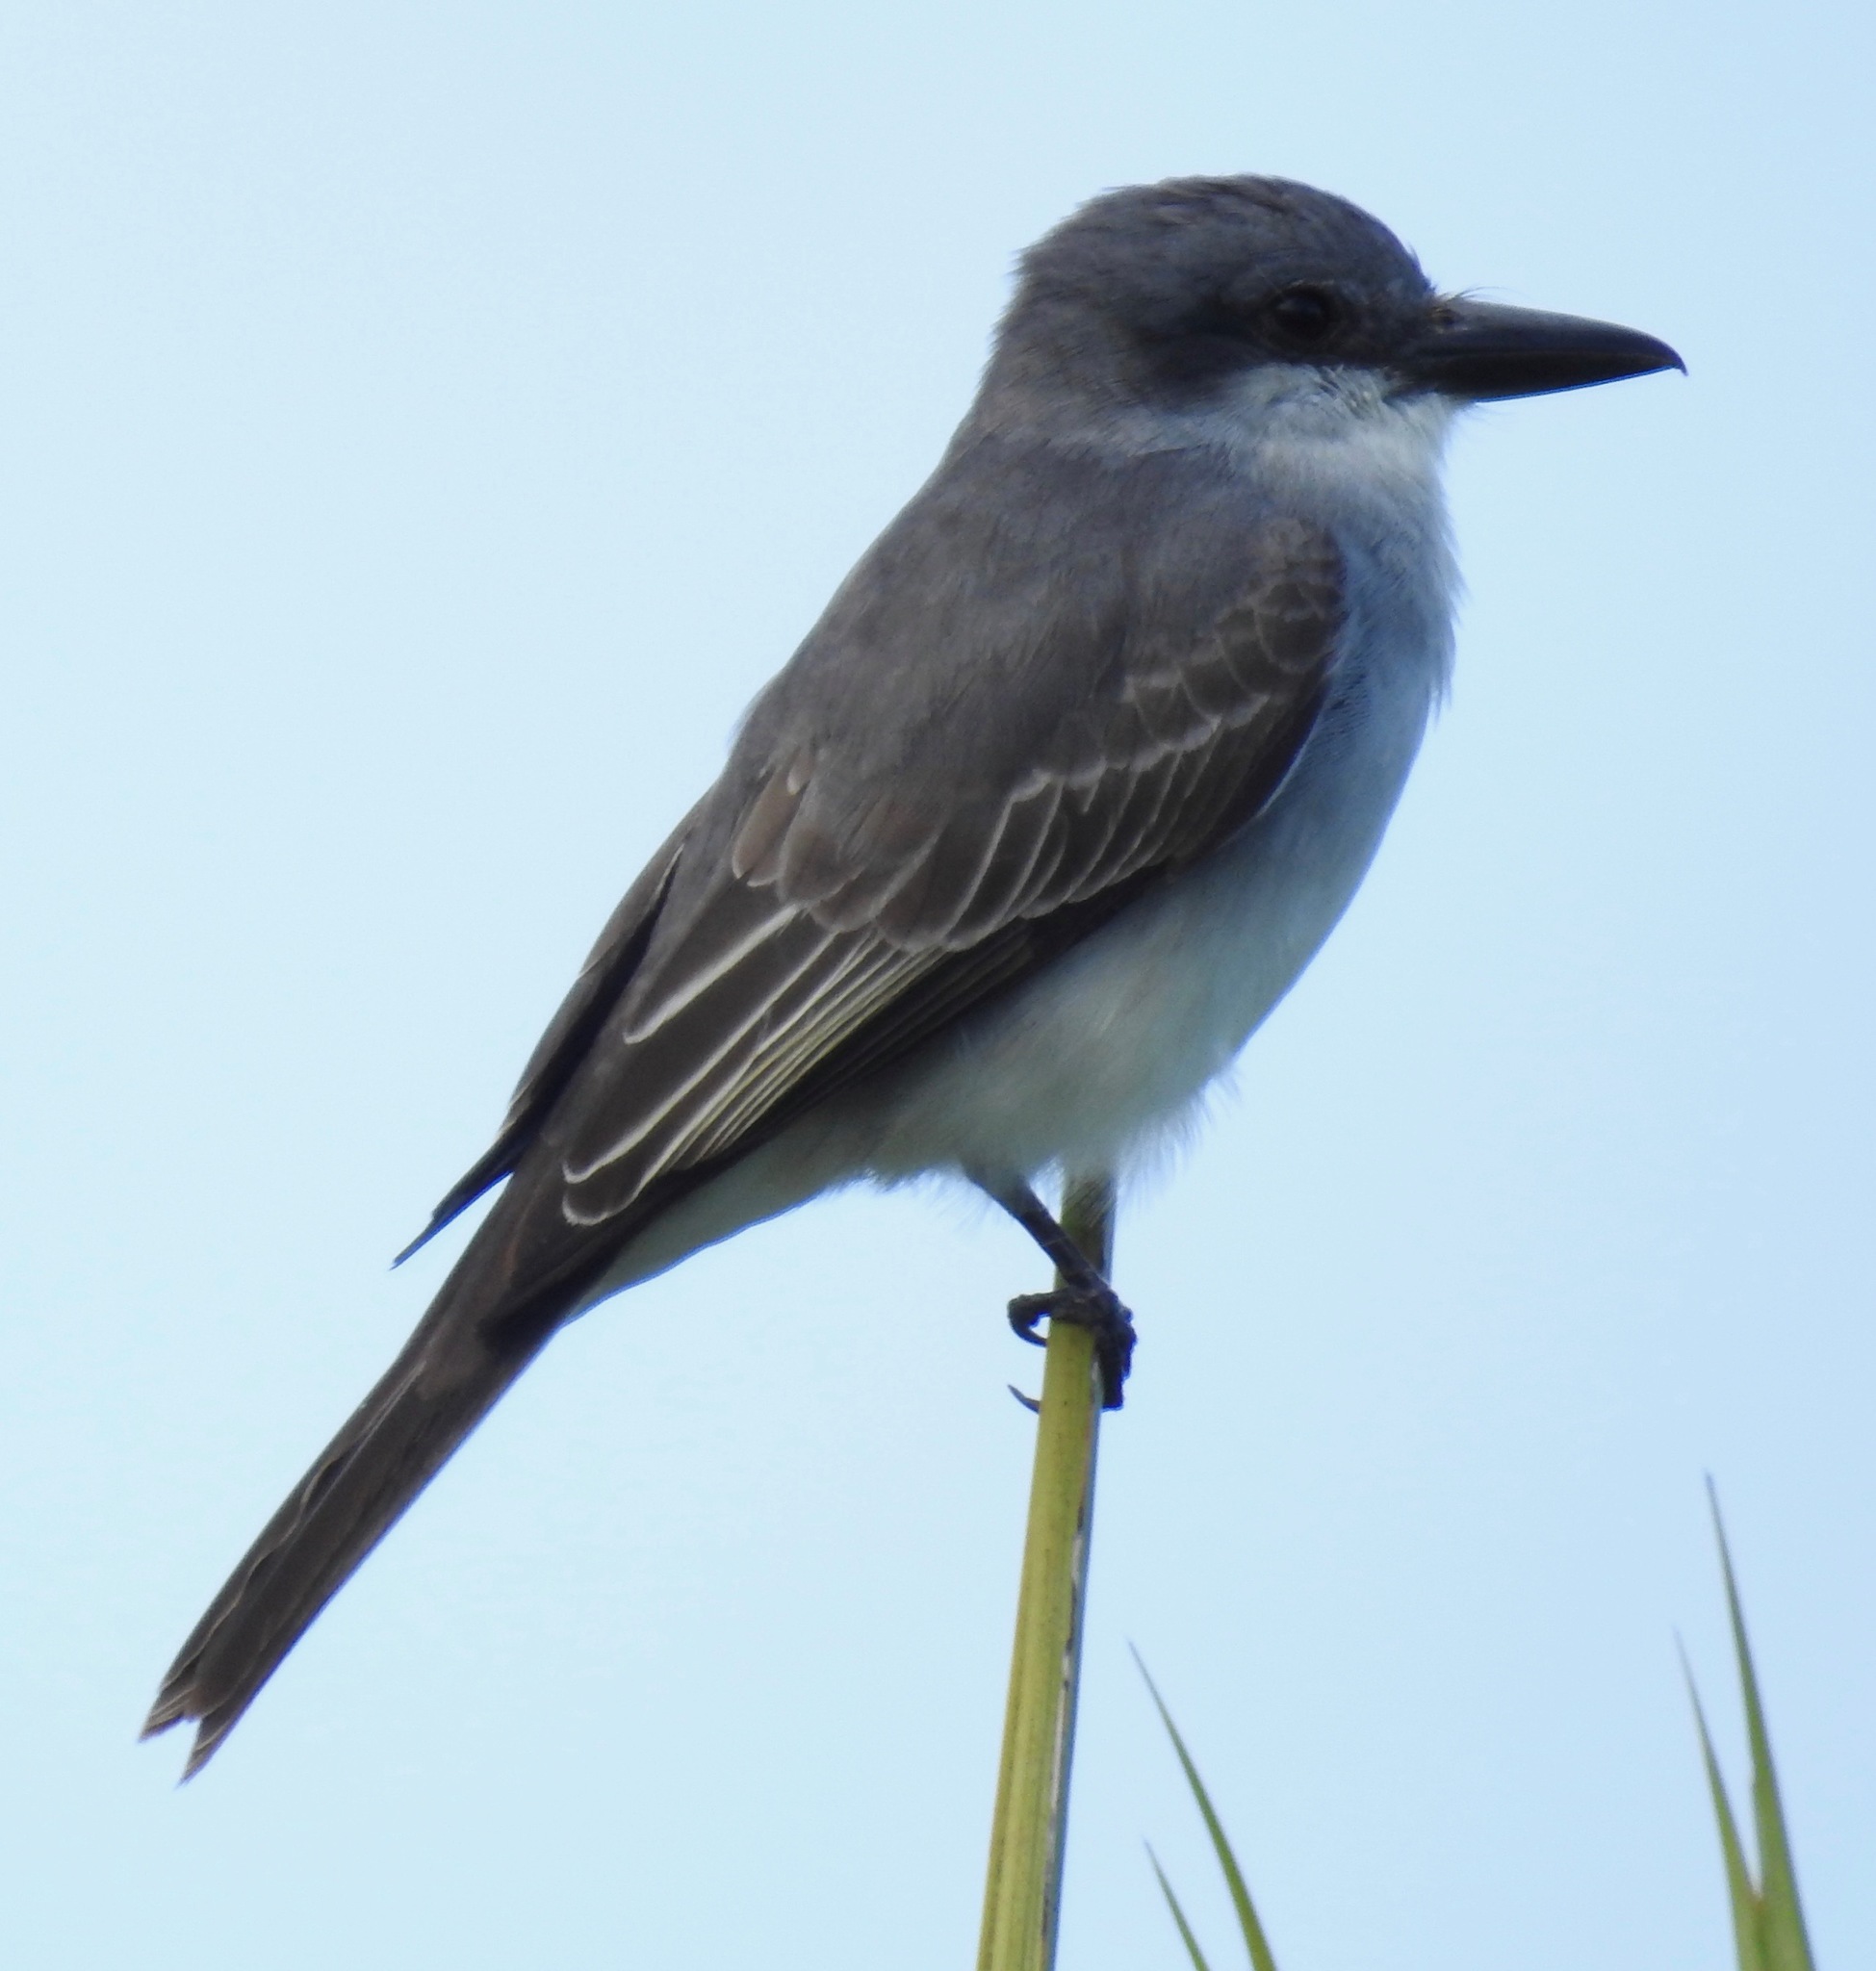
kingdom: Animalia
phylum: Chordata
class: Aves
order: Passeriformes
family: Tyrannidae
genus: Tyrannus
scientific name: Tyrannus dominicensis
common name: Gray kingbird
